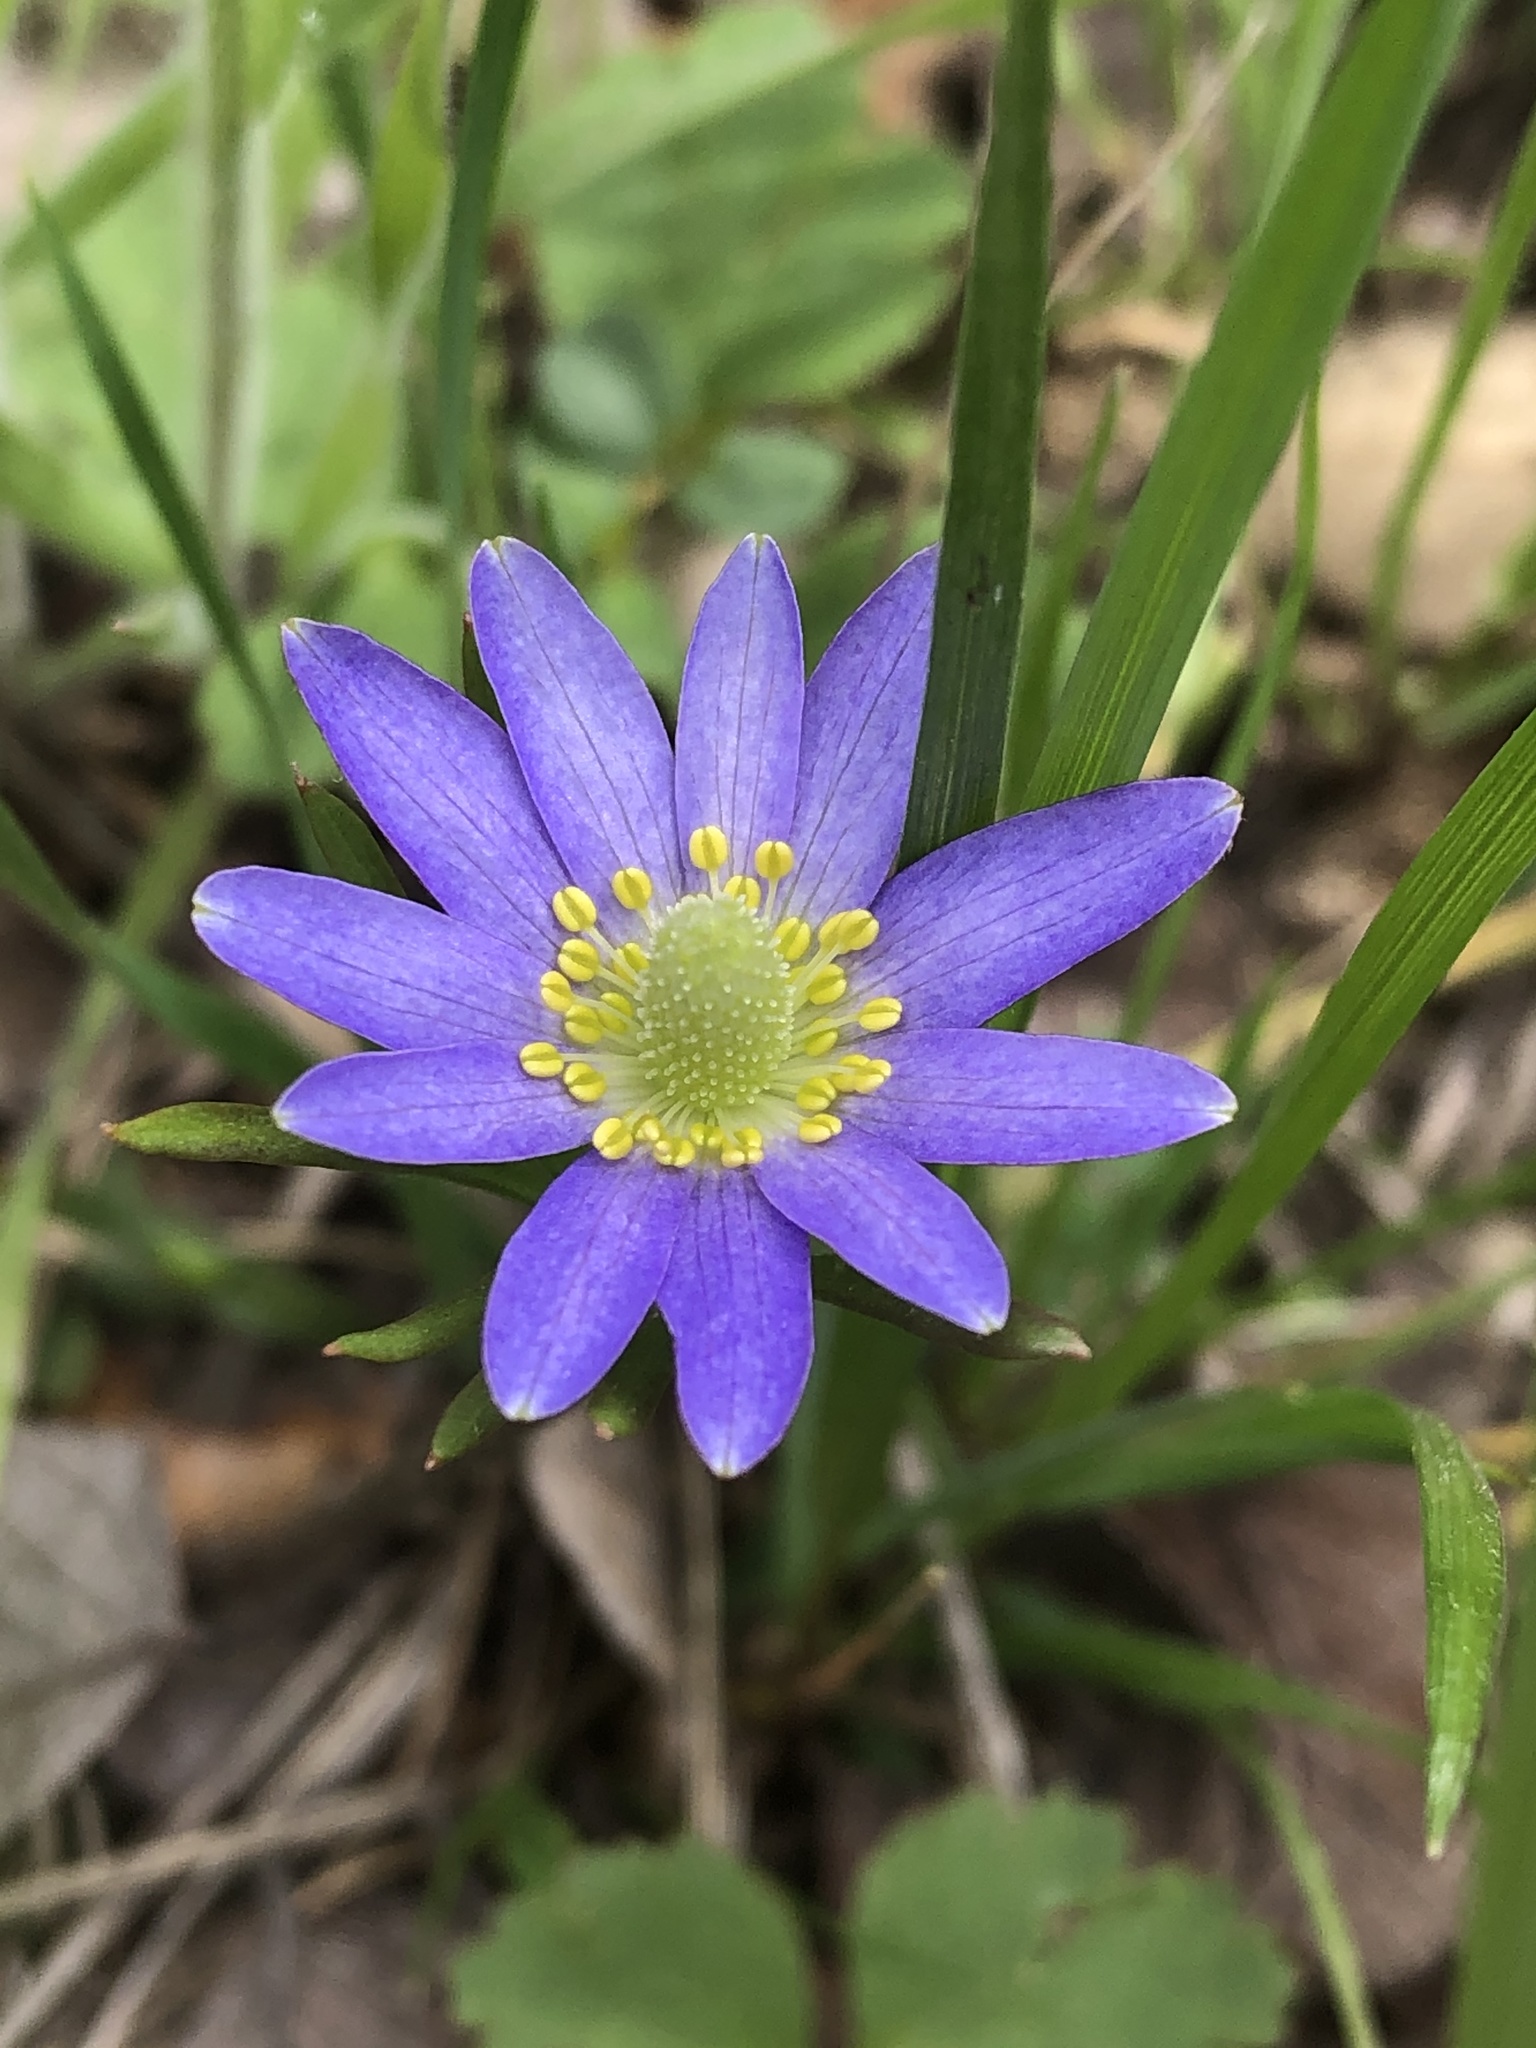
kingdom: Plantae
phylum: Tracheophyta
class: Magnoliopsida
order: Ranunculales
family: Ranunculaceae
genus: Anemone
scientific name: Anemone berlandieri
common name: Ten-petal anemone
